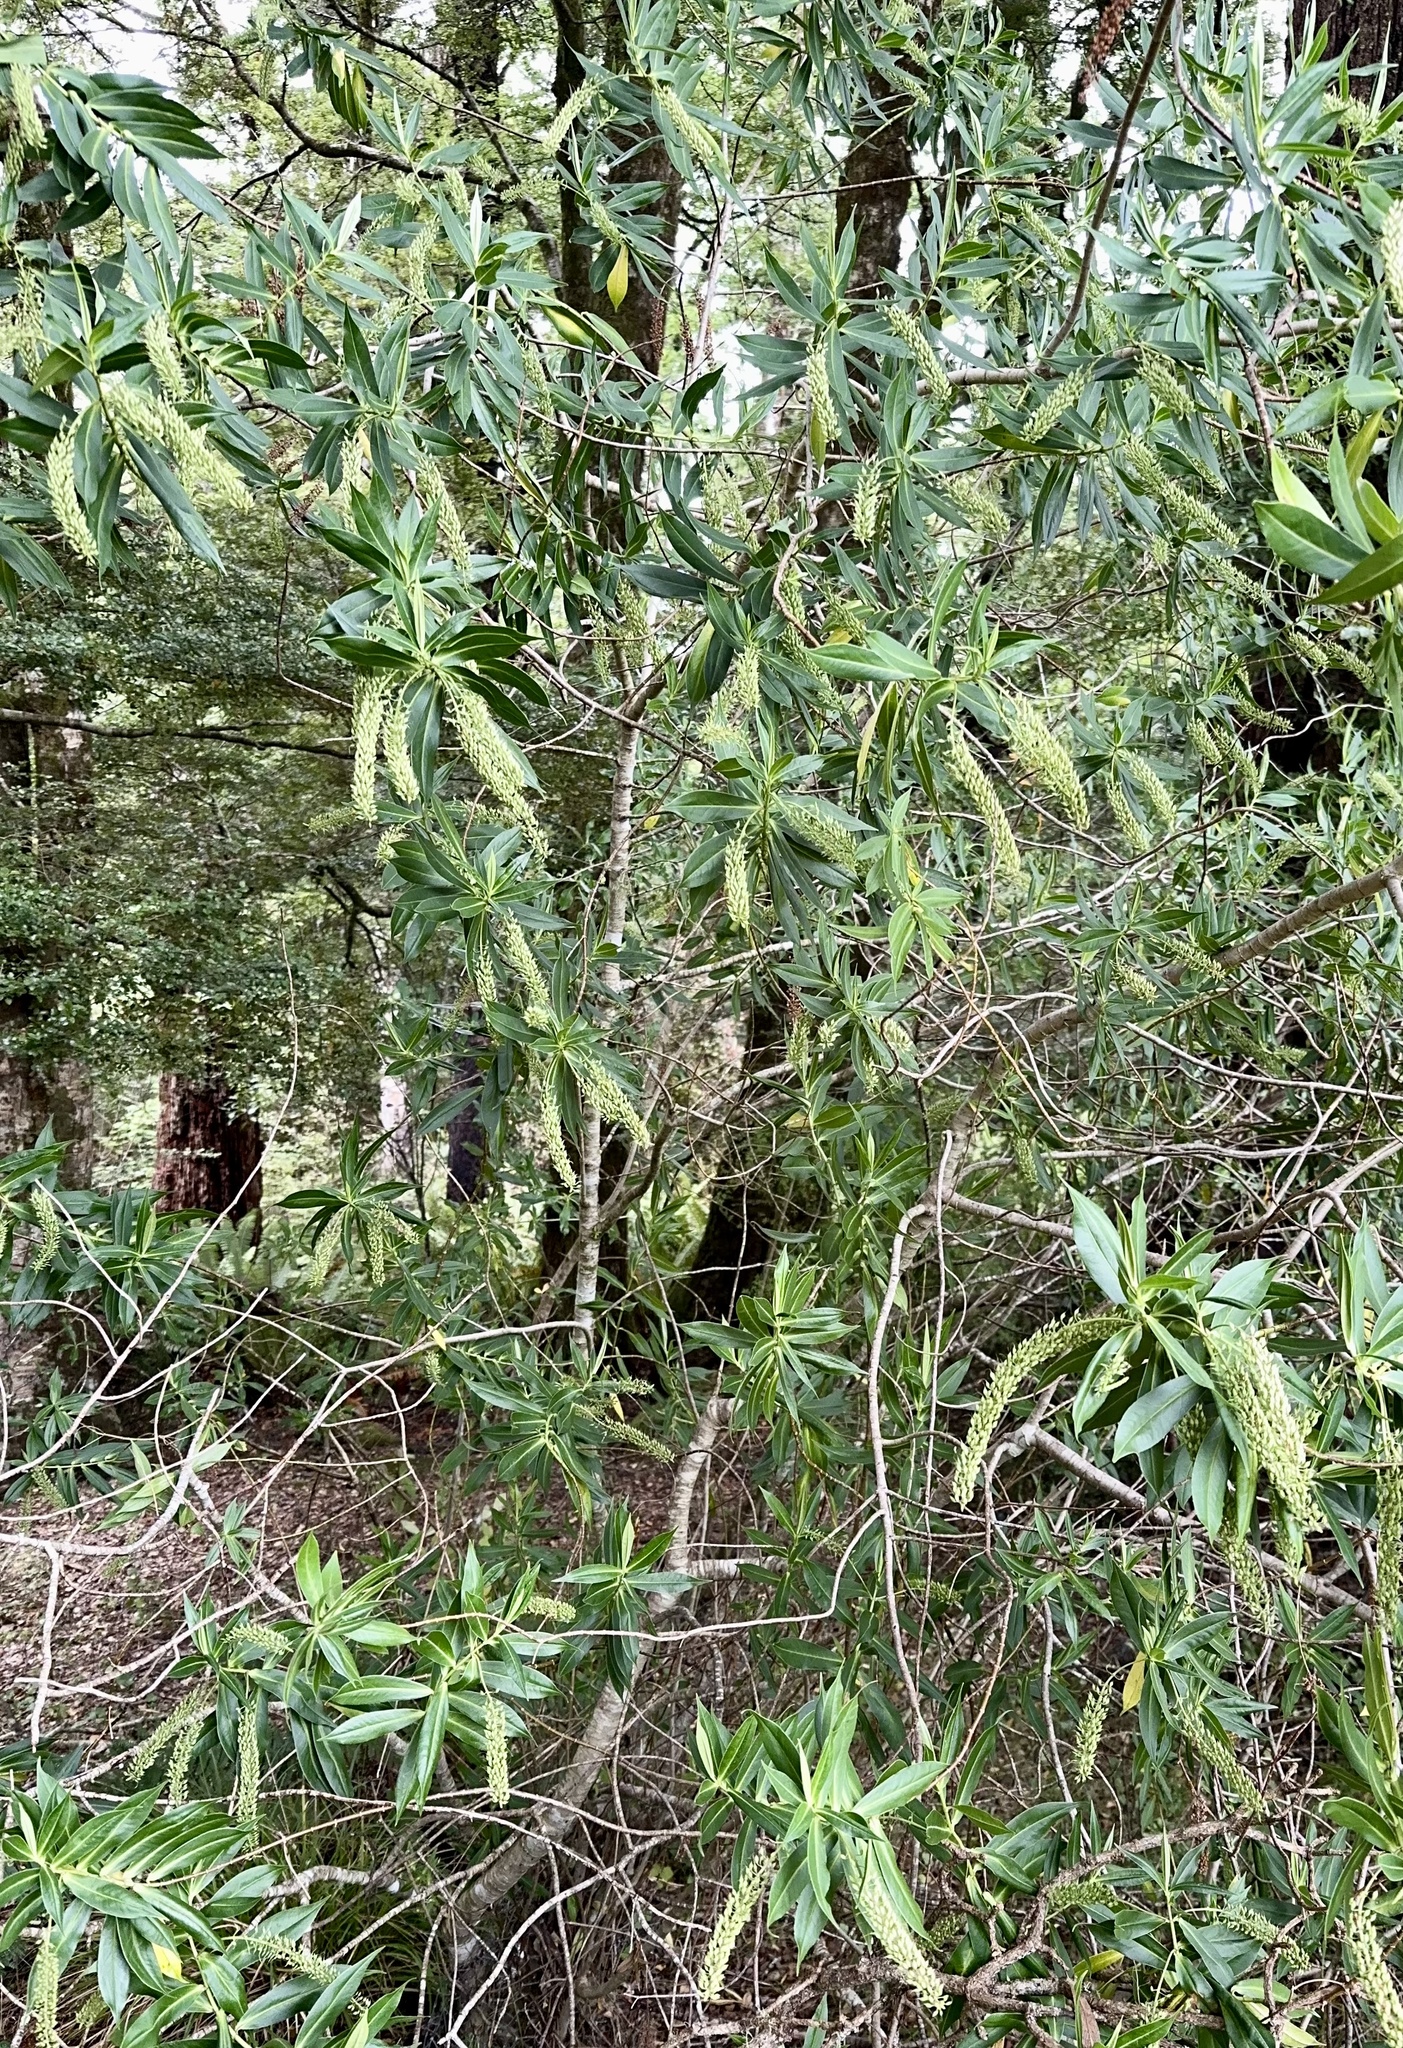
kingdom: Plantae
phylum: Tracheophyta
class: Magnoliopsida
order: Lamiales
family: Plantaginaceae
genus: Veronica
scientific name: Veronica salicifolia
